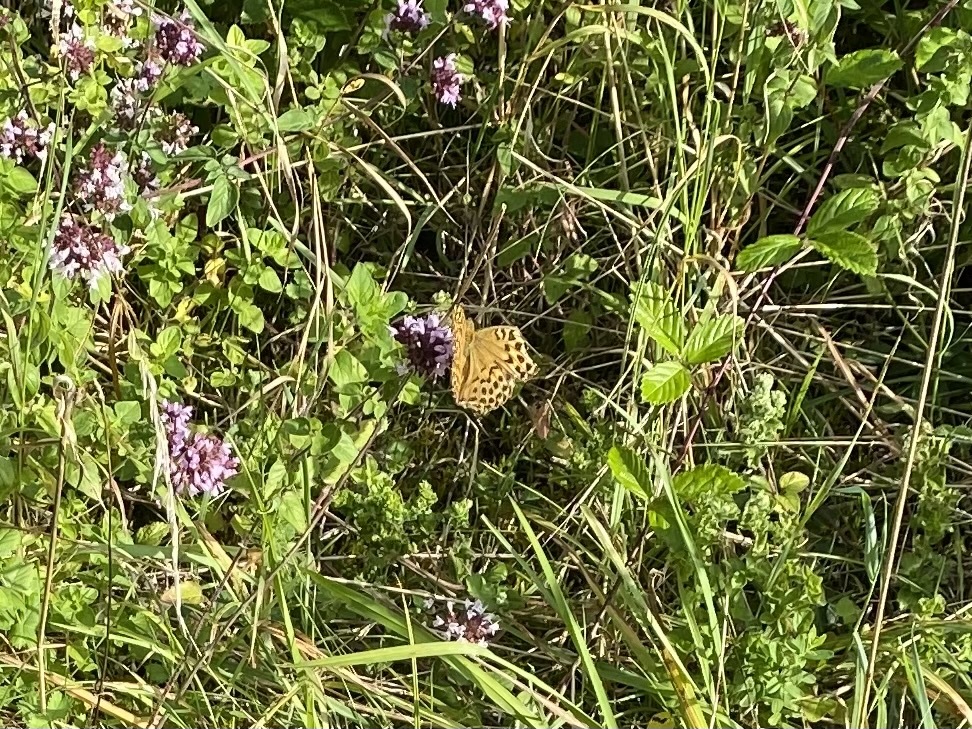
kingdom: Animalia
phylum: Arthropoda
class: Insecta
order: Lepidoptera
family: Nymphalidae
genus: Argynnis
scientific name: Argynnis paphia
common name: Silver-washed fritillary
